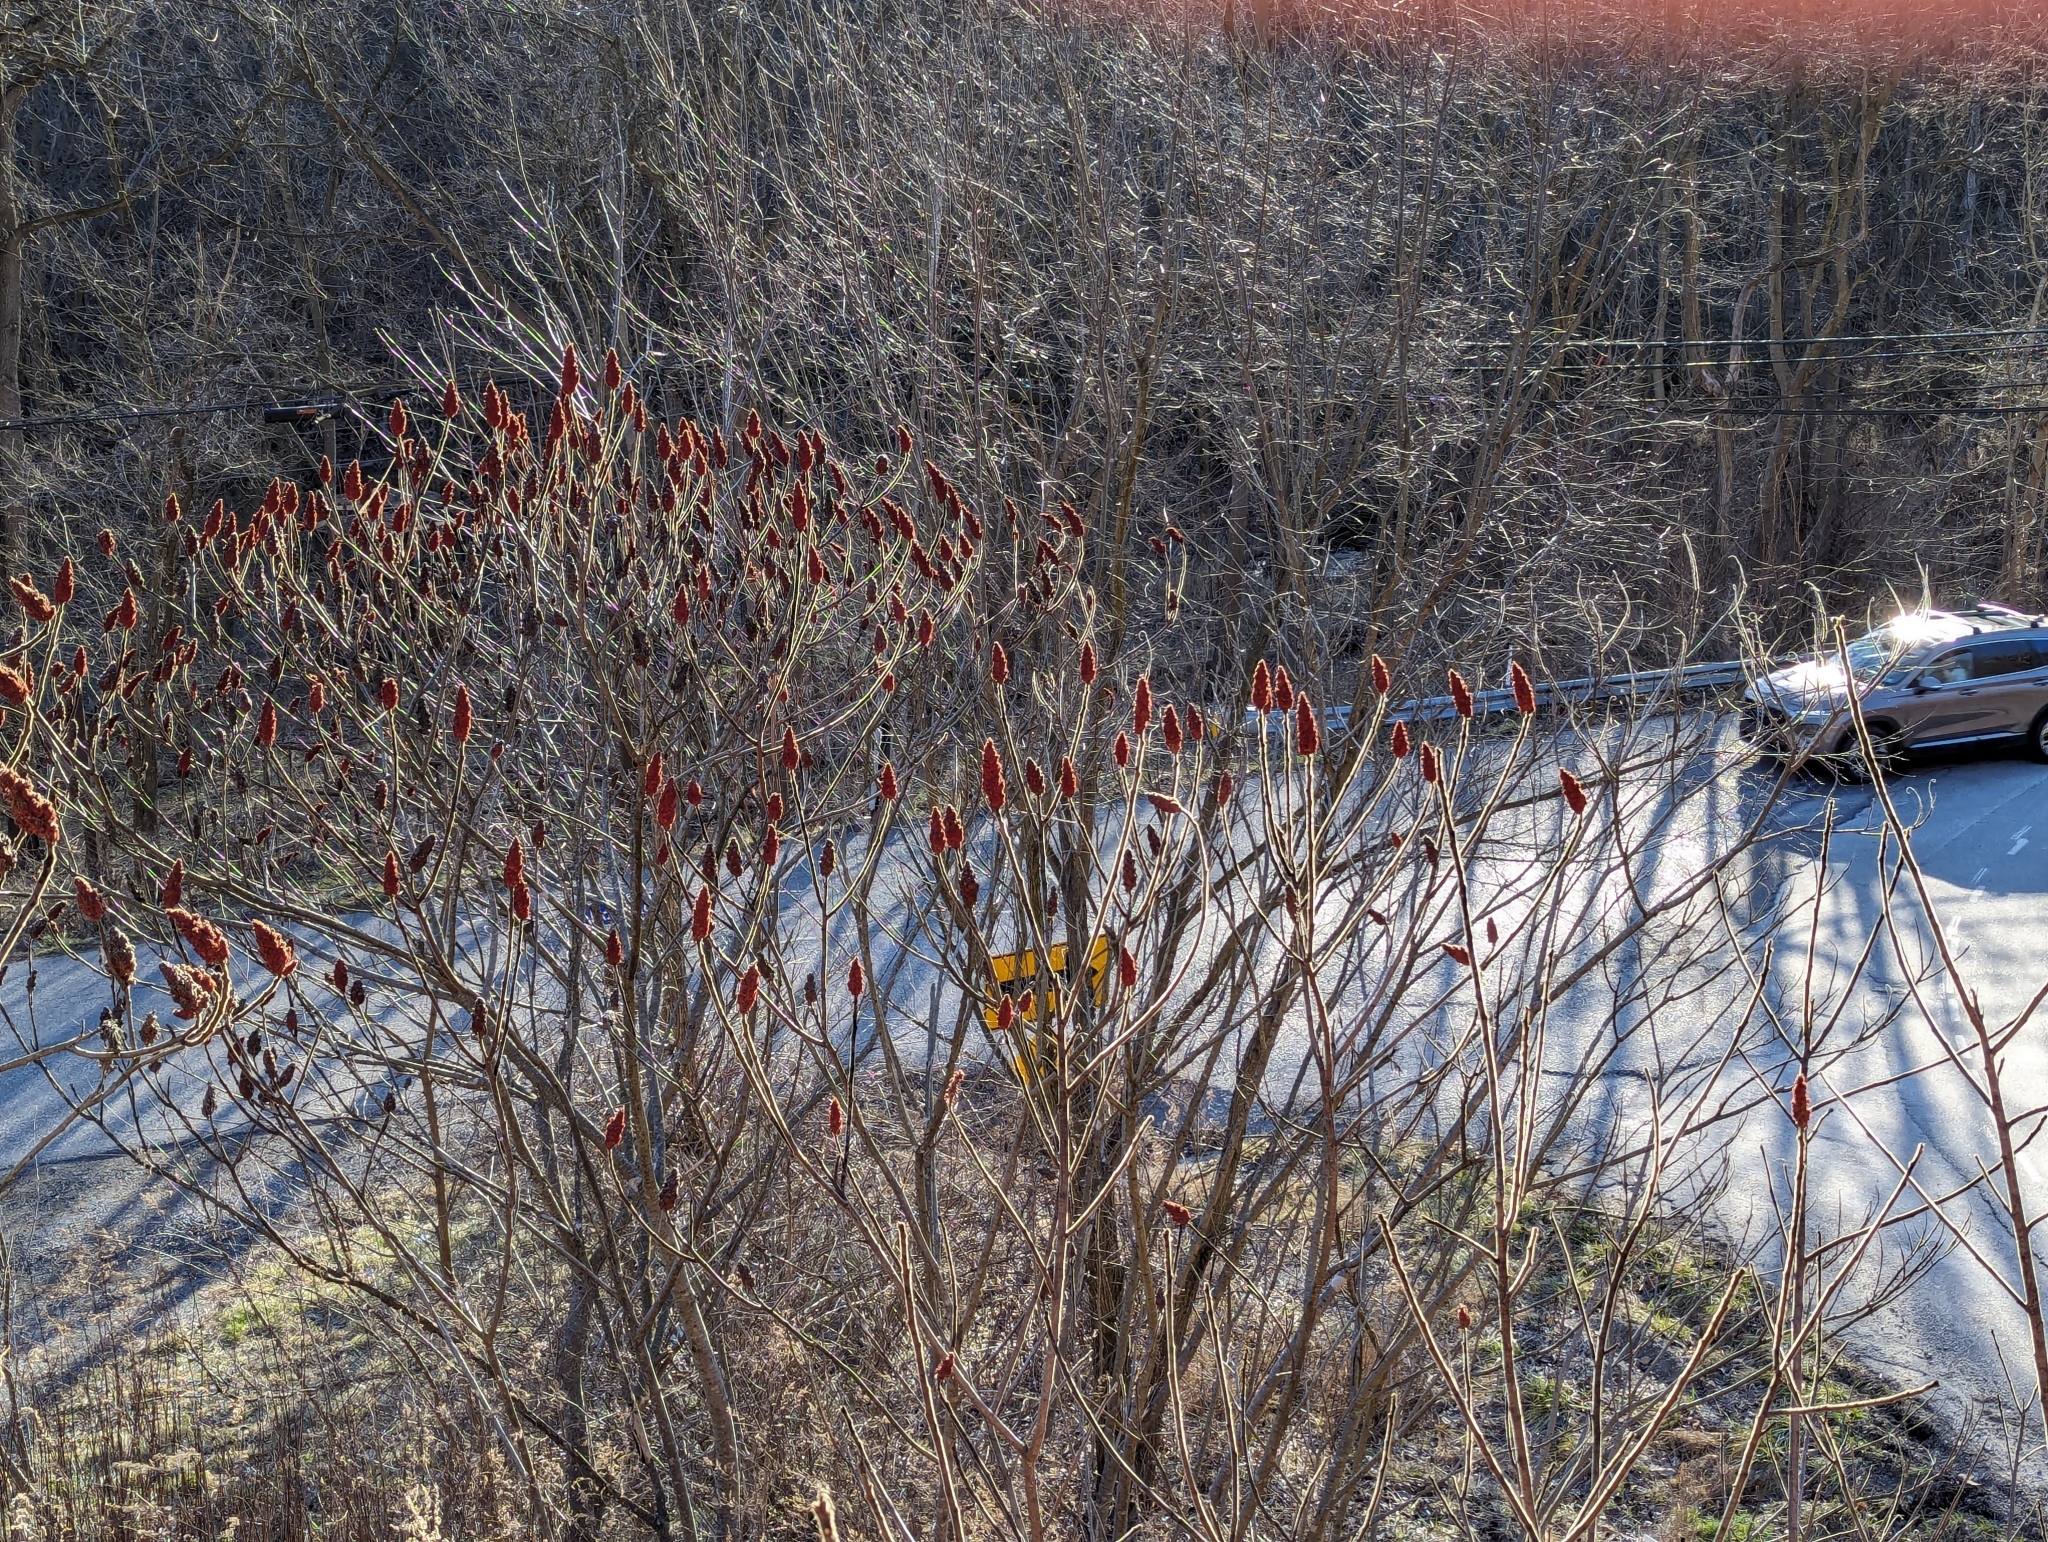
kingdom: Plantae
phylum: Tracheophyta
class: Magnoliopsida
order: Sapindales
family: Anacardiaceae
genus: Rhus
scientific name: Rhus typhina
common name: Staghorn sumac
